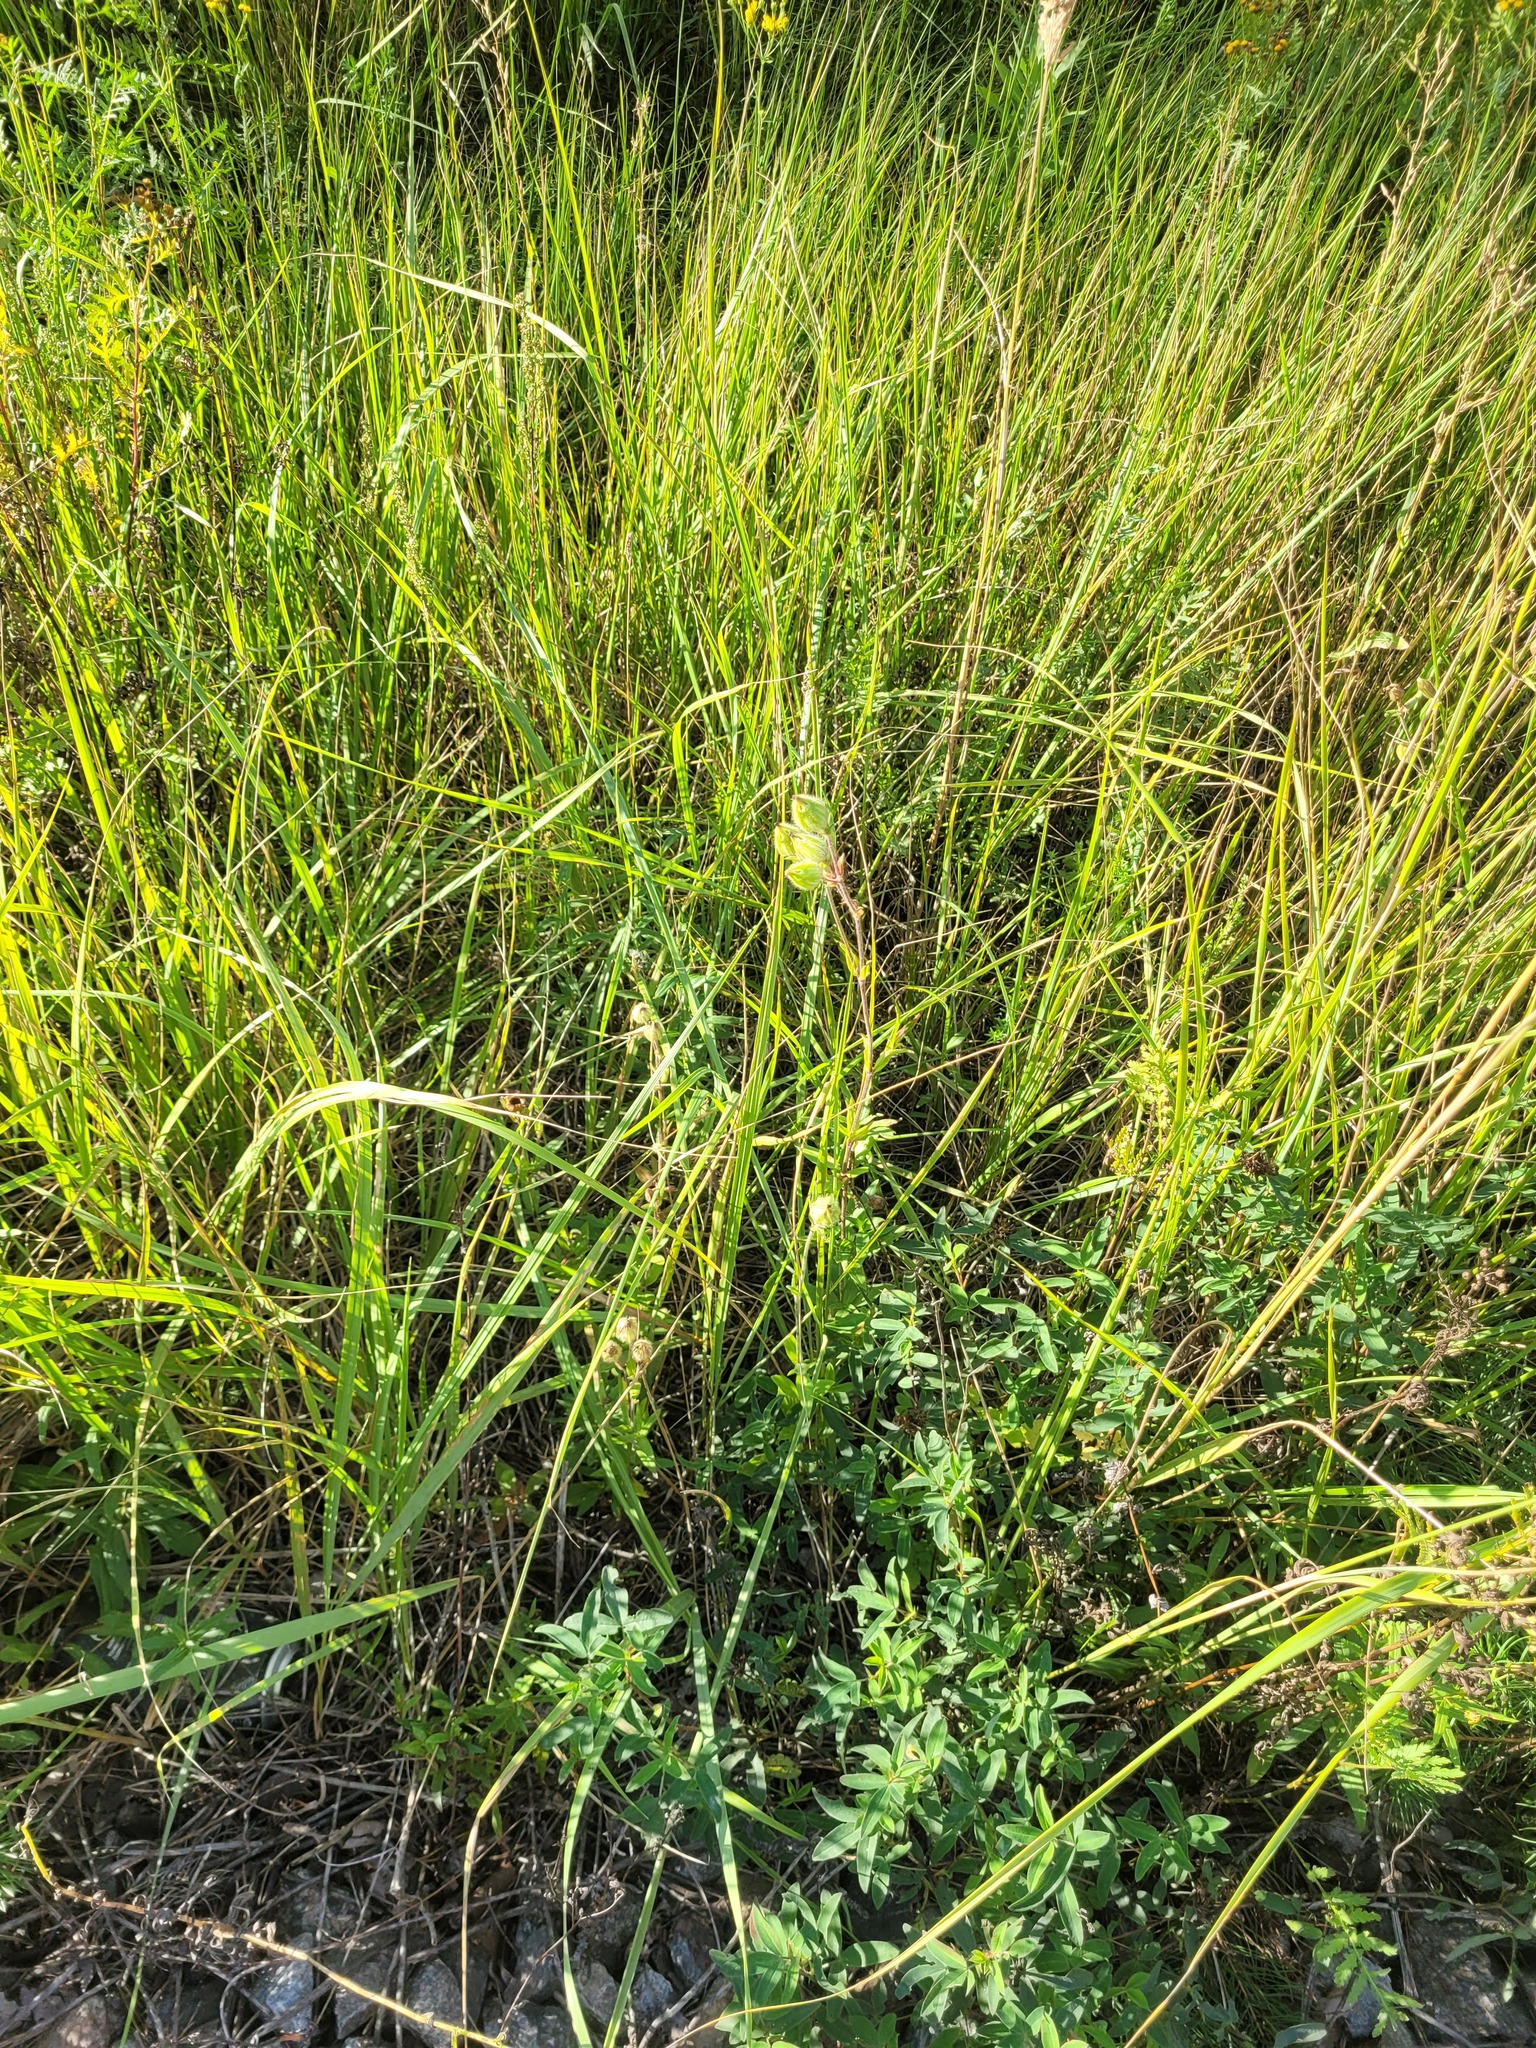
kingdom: Plantae
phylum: Tracheophyta
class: Magnoliopsida
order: Caryophyllales
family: Caryophyllaceae
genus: Silene
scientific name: Silene latifolia
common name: White campion
